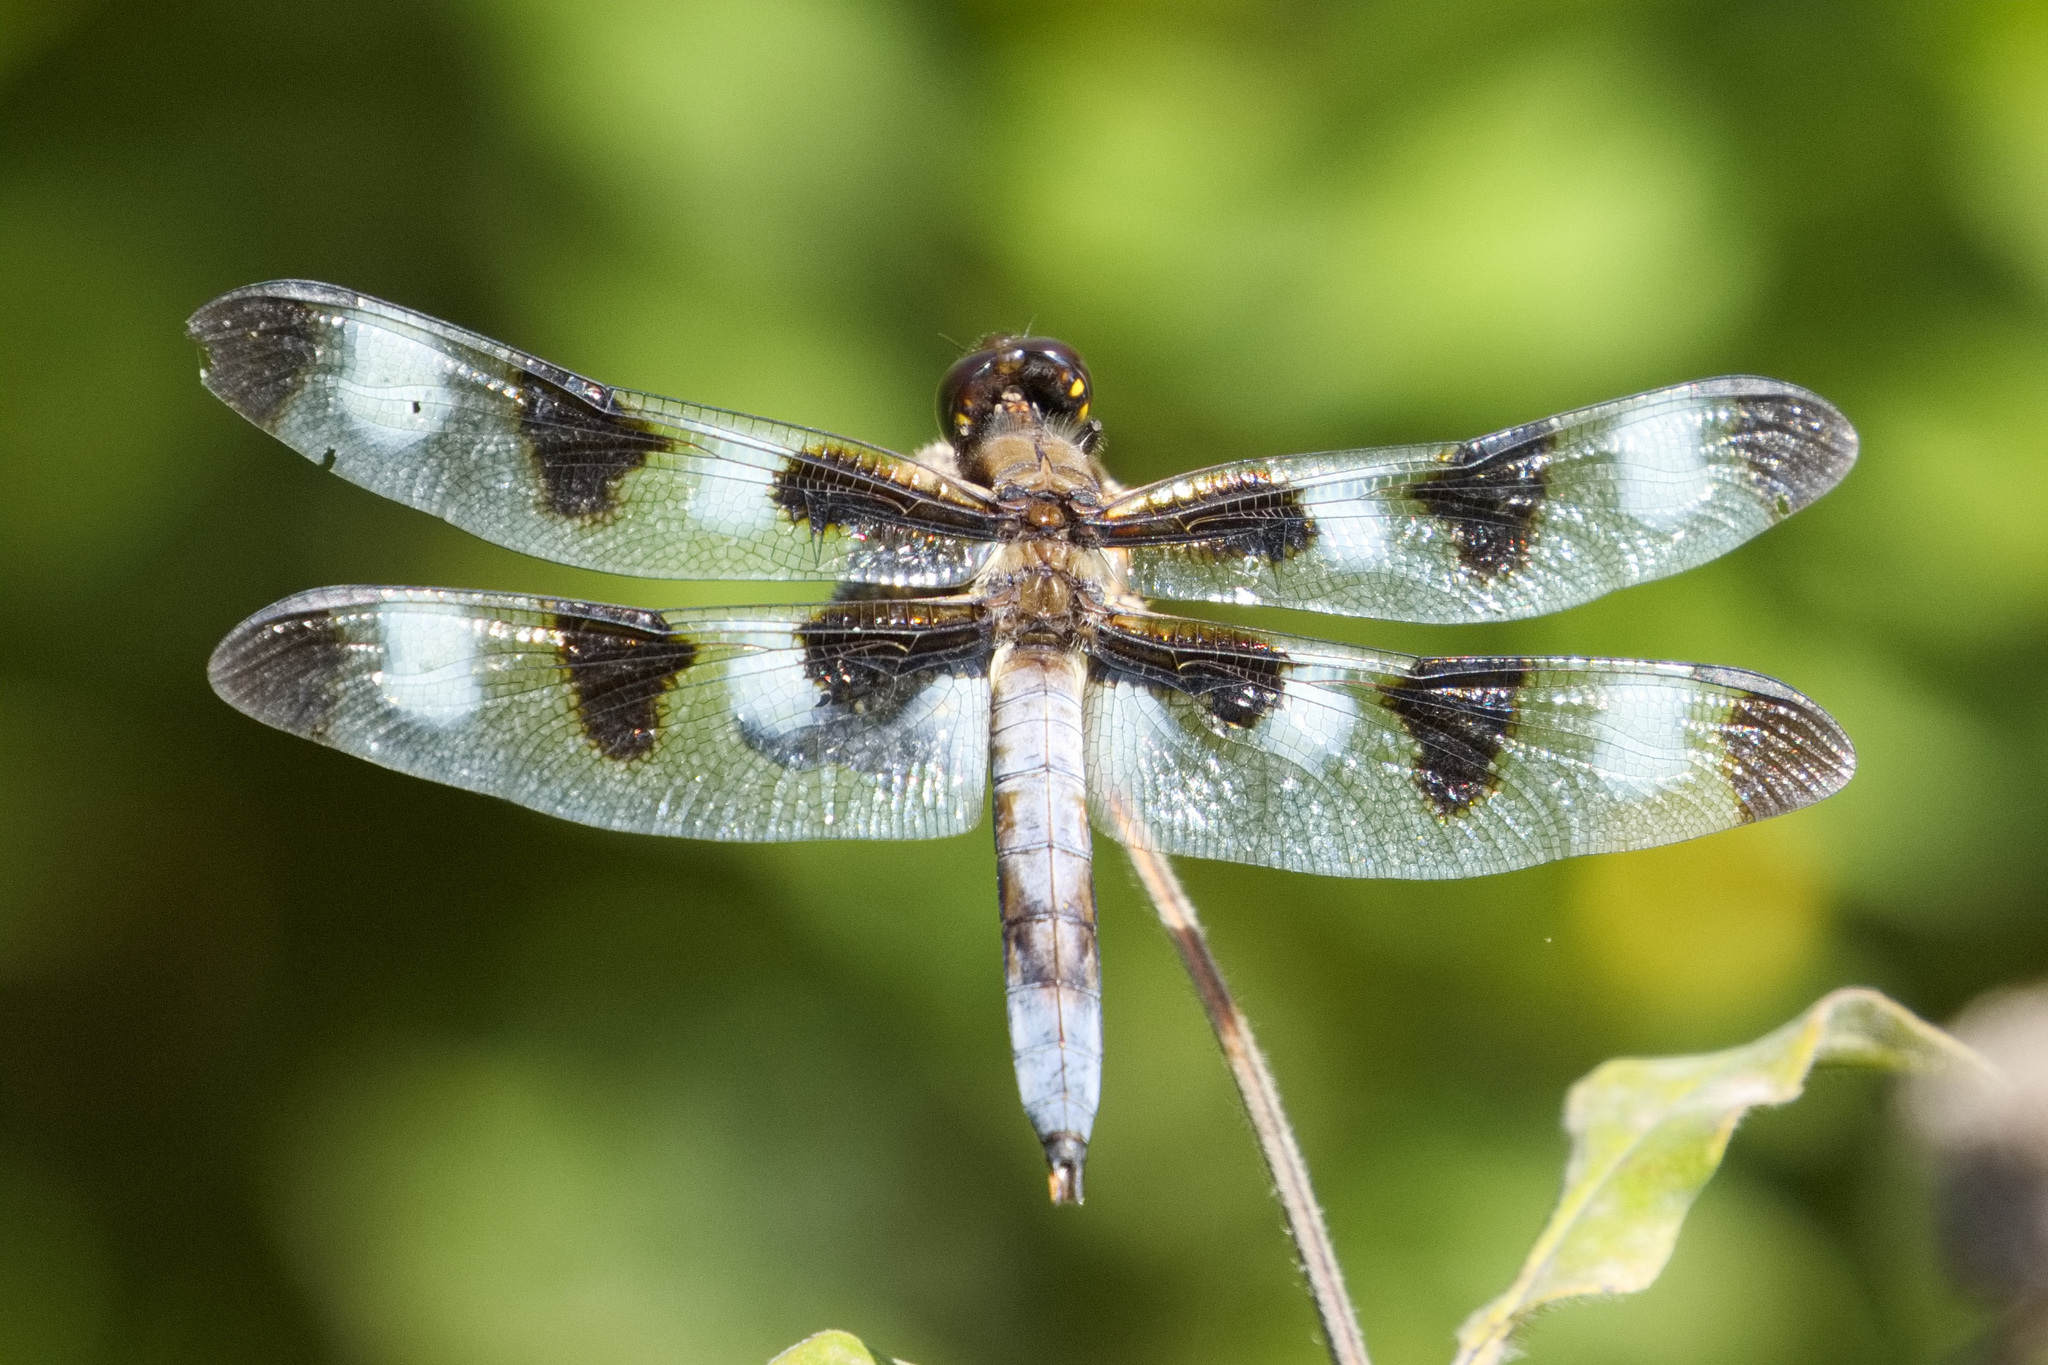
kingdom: Animalia
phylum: Arthropoda
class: Insecta
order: Odonata
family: Libellulidae
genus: Libellula
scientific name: Libellula pulchella
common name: Twelve-spotted skimmer
